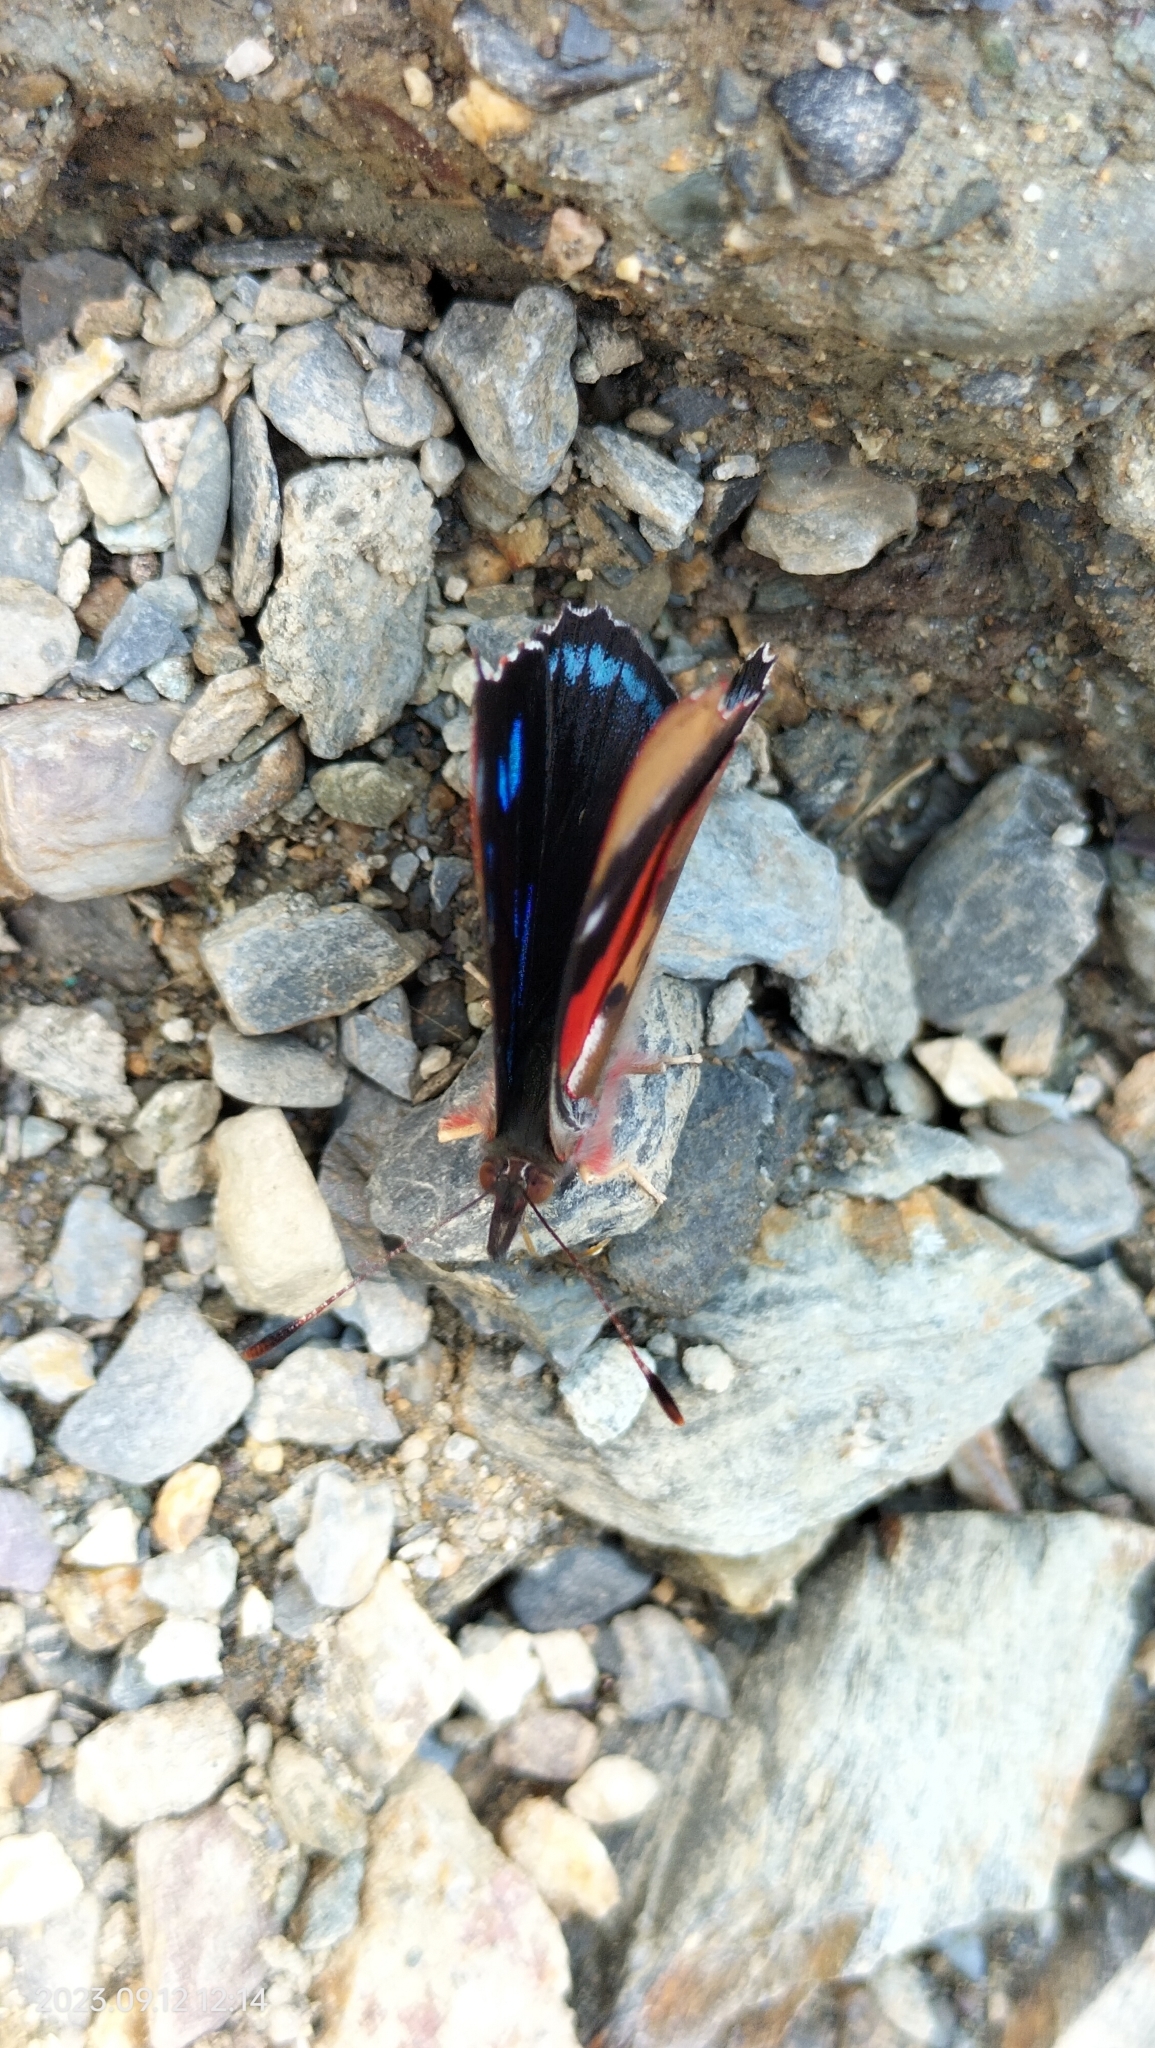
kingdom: Animalia
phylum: Arthropoda
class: Insecta
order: Lepidoptera
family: Nymphalidae
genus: Perisama
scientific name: Perisama Orophila cecidas
